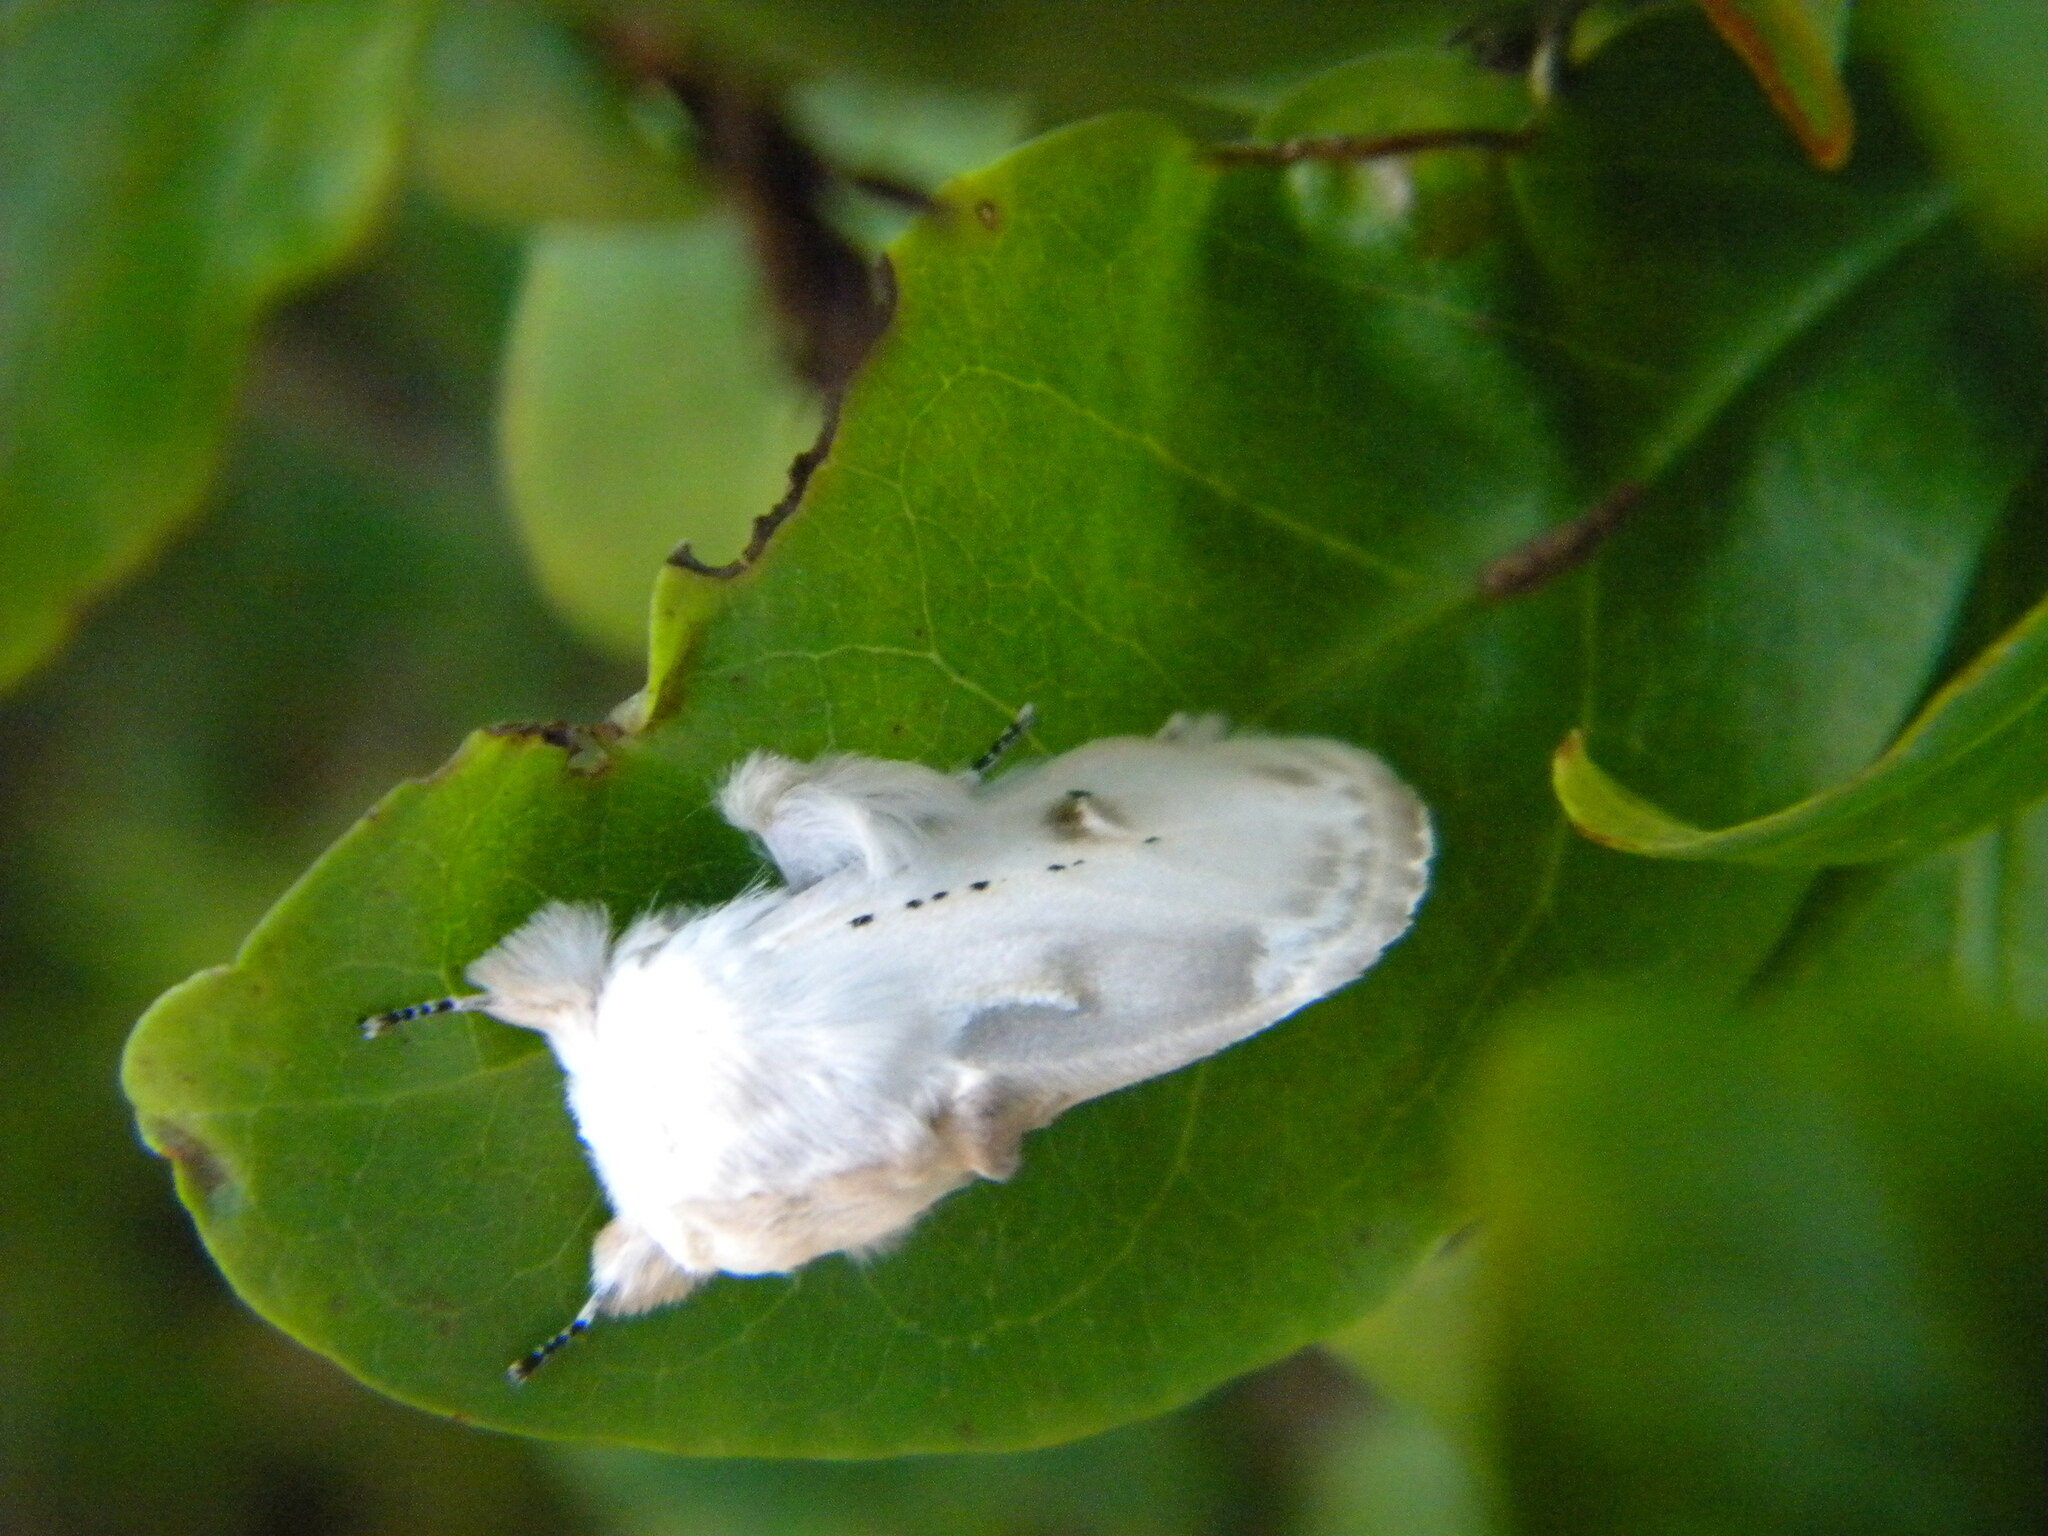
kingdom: Animalia
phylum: Arthropoda
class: Insecta
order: Lepidoptera
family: Erebidae
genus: Naroma
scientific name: Naroma varipes
